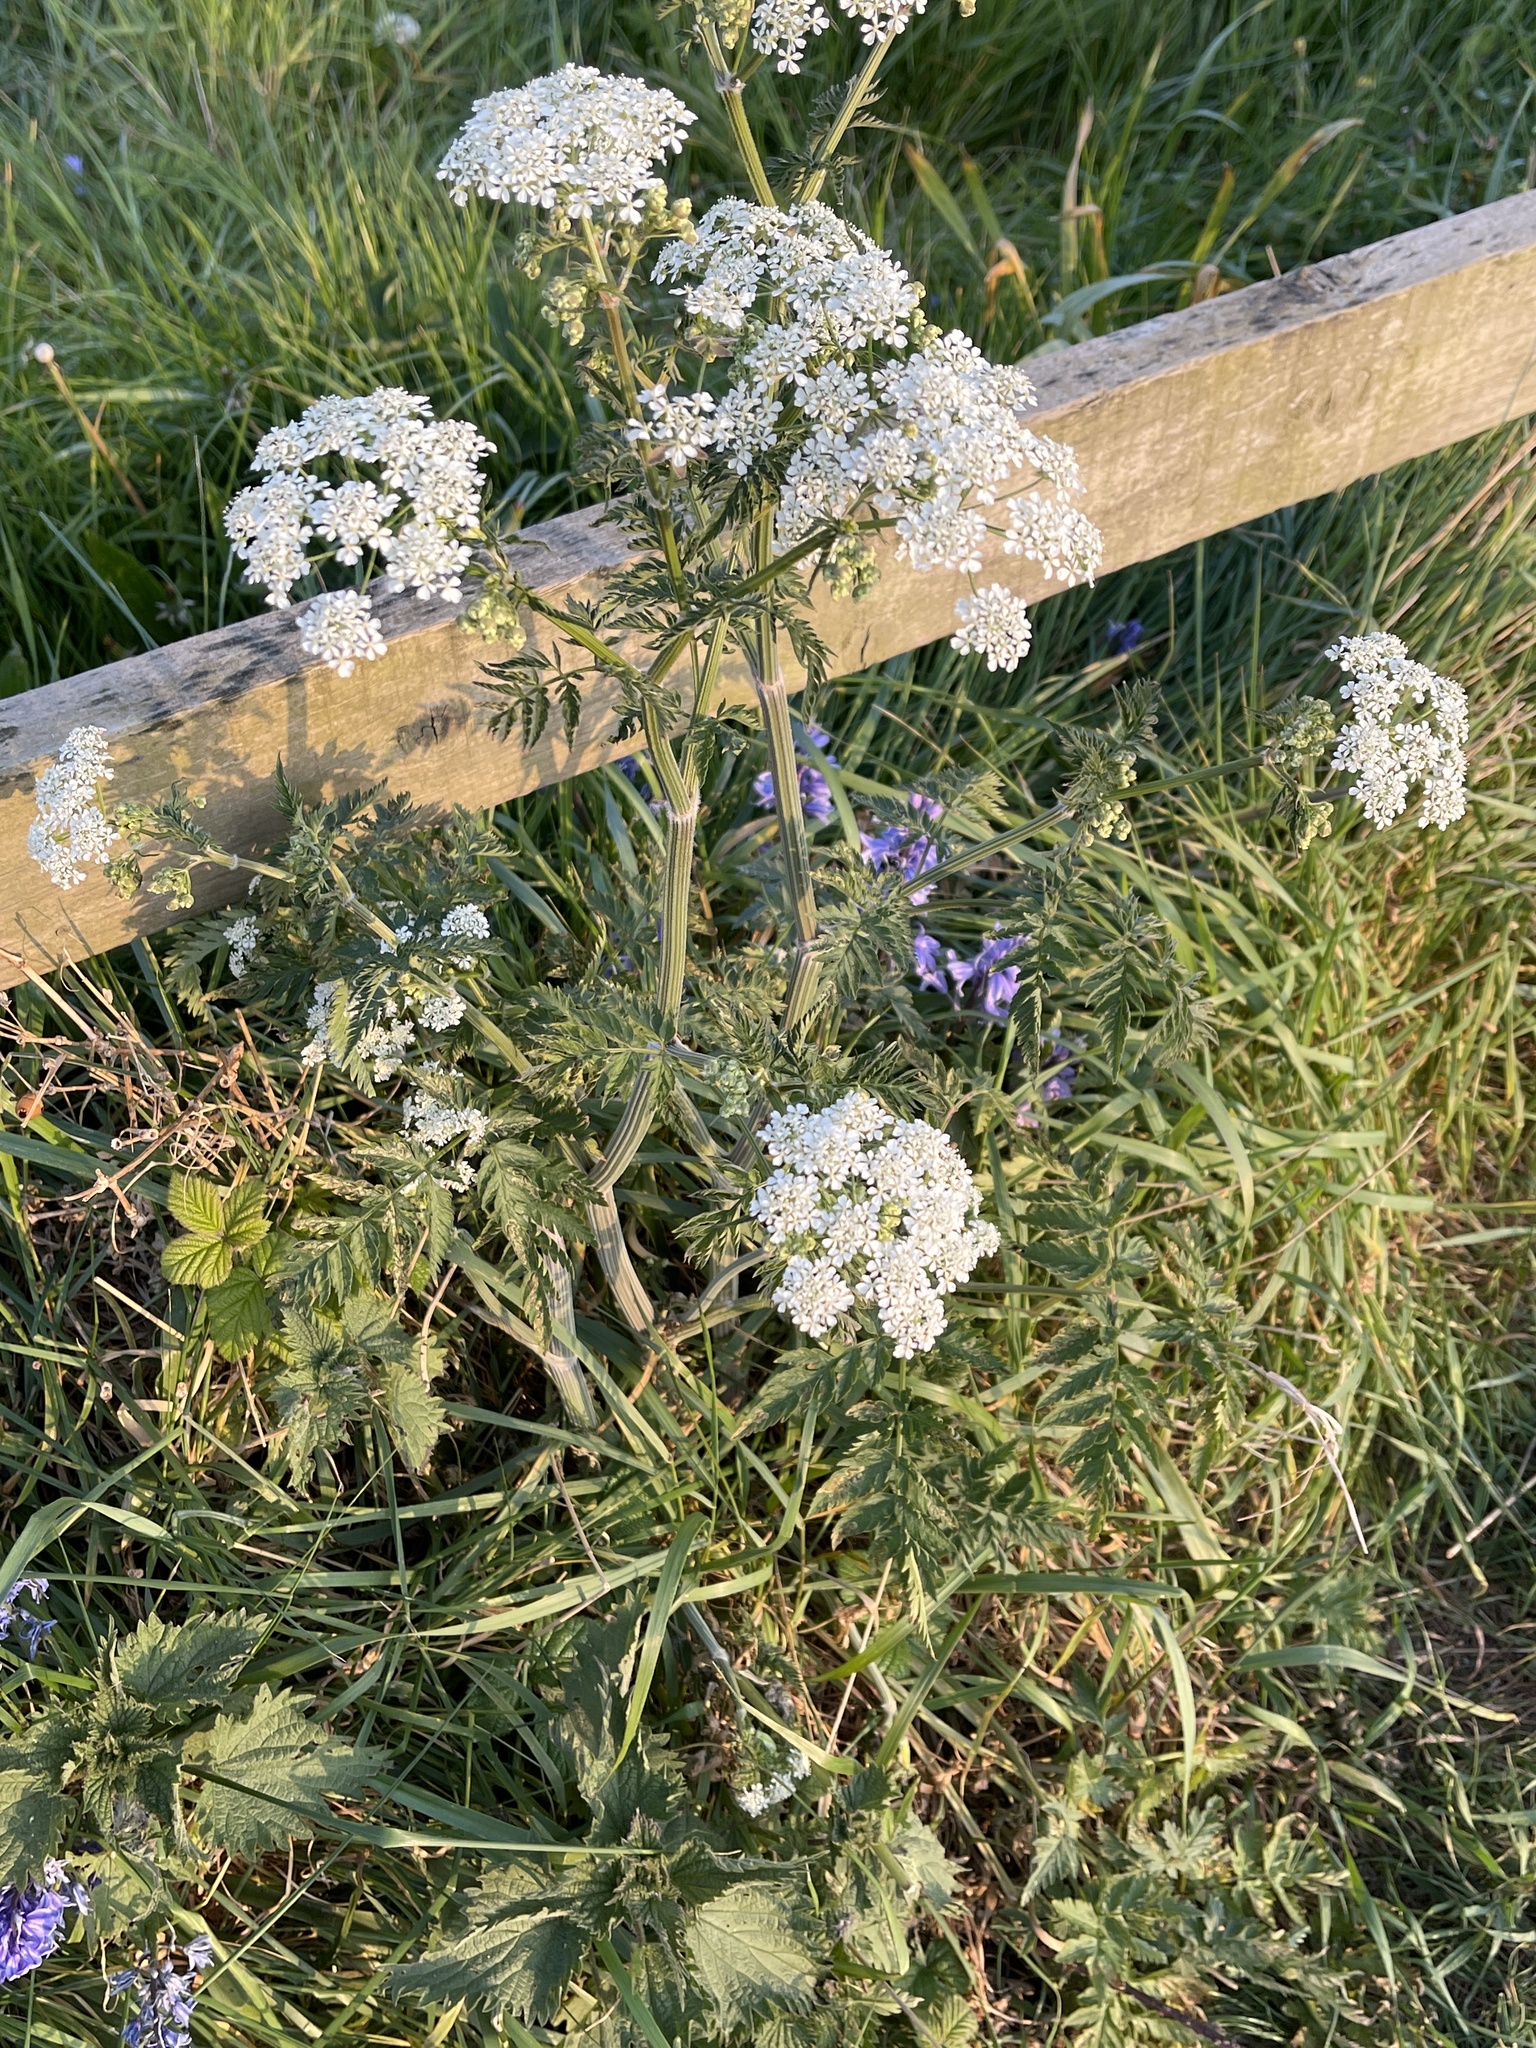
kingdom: Plantae
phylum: Tracheophyta
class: Magnoliopsida
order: Apiales
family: Apiaceae
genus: Anthriscus
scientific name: Anthriscus sylvestris
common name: Cow parsley
